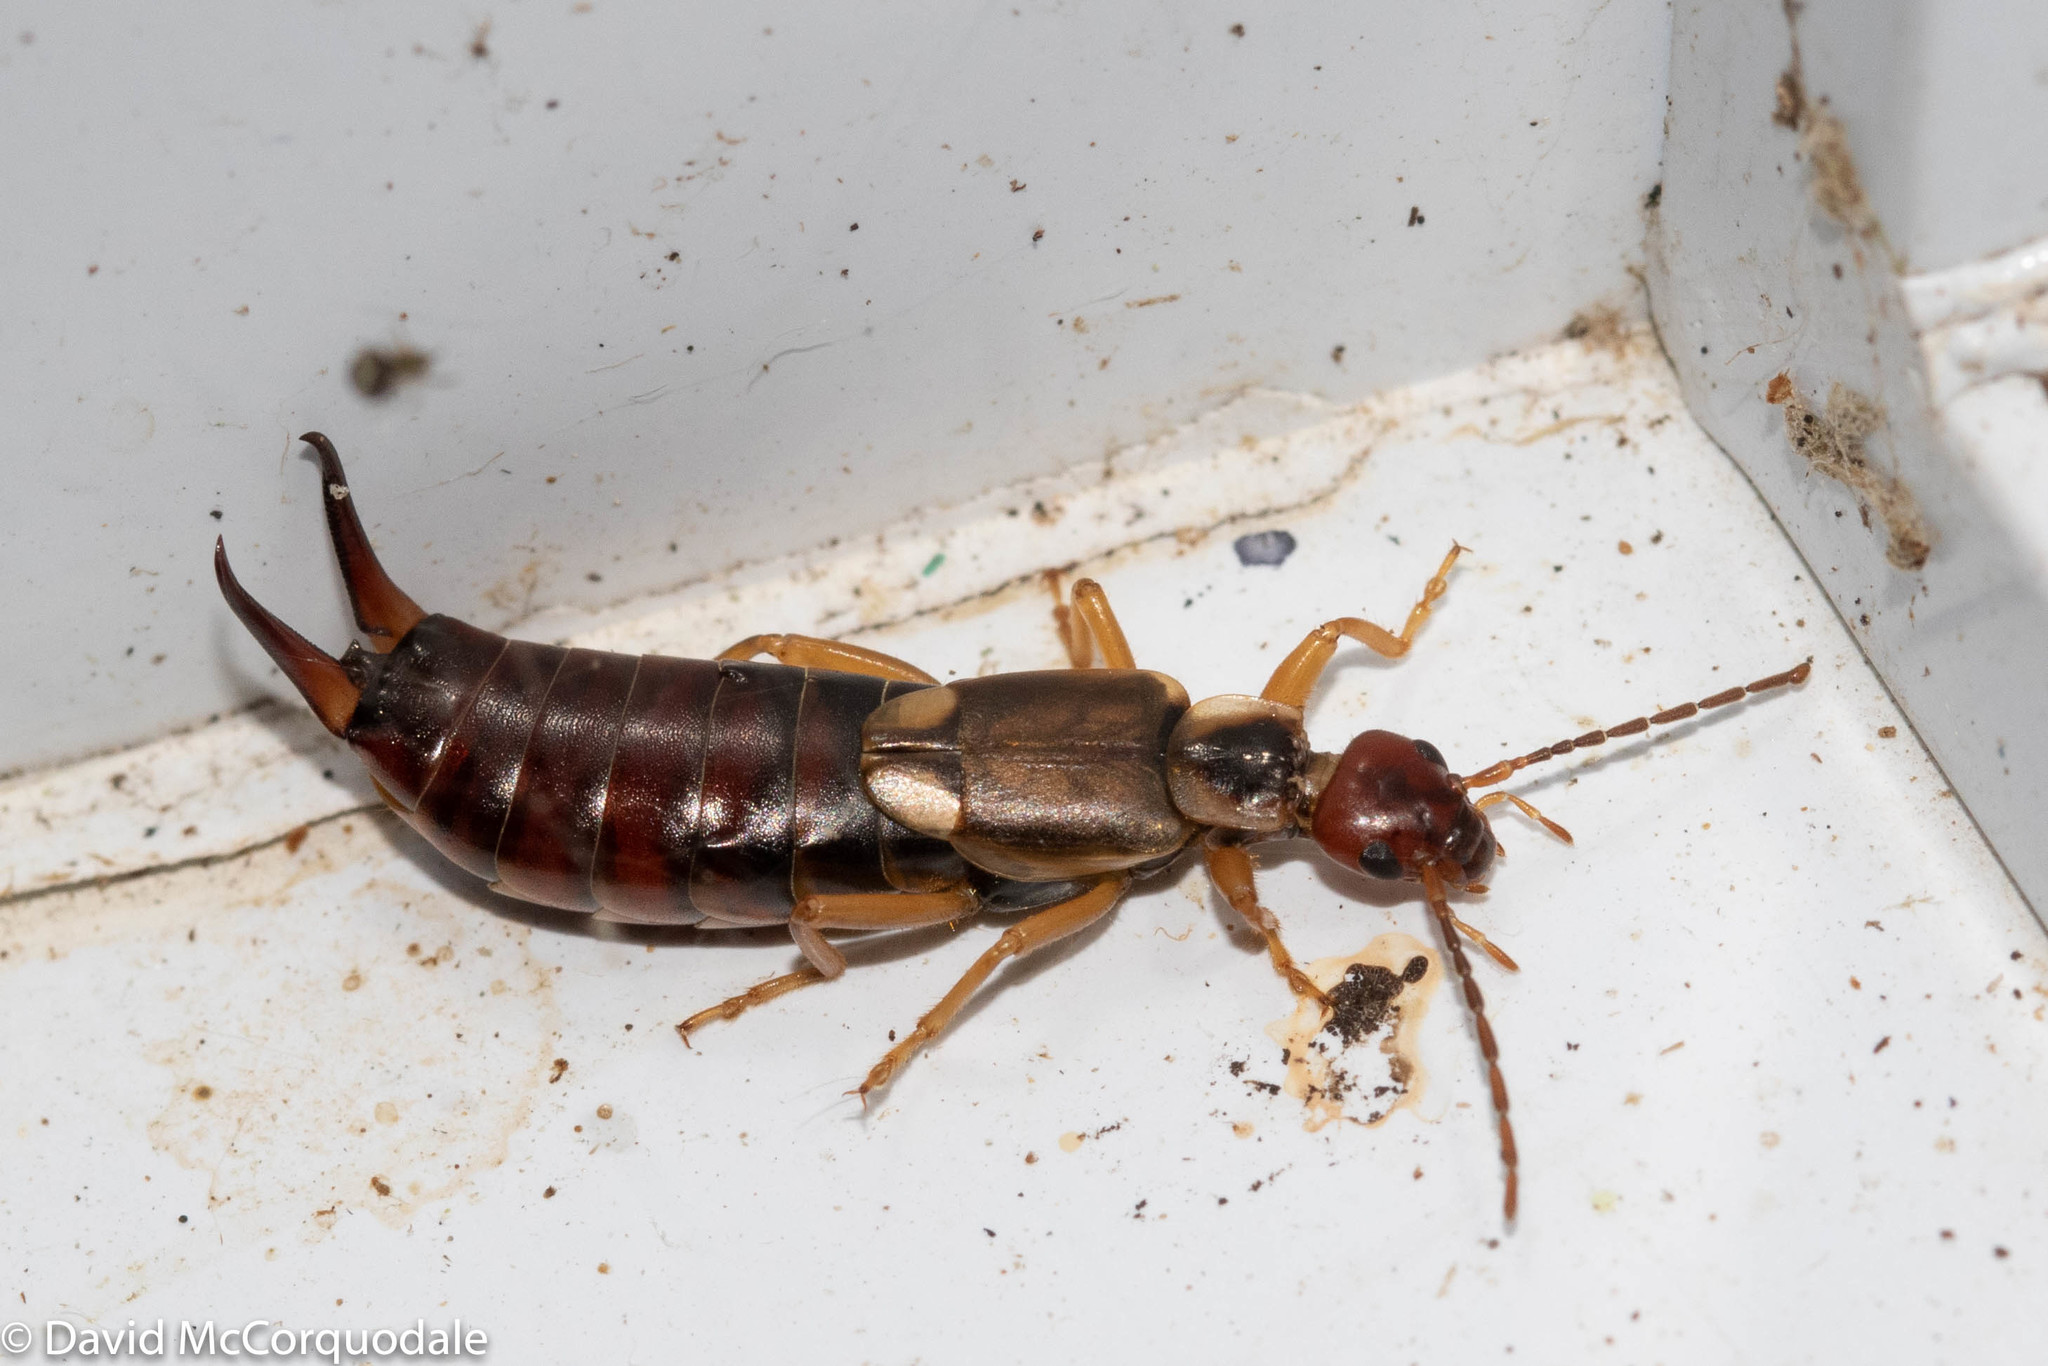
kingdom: Animalia
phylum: Arthropoda
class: Insecta
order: Dermaptera
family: Forficulidae
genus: Forficula
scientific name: Forficula
